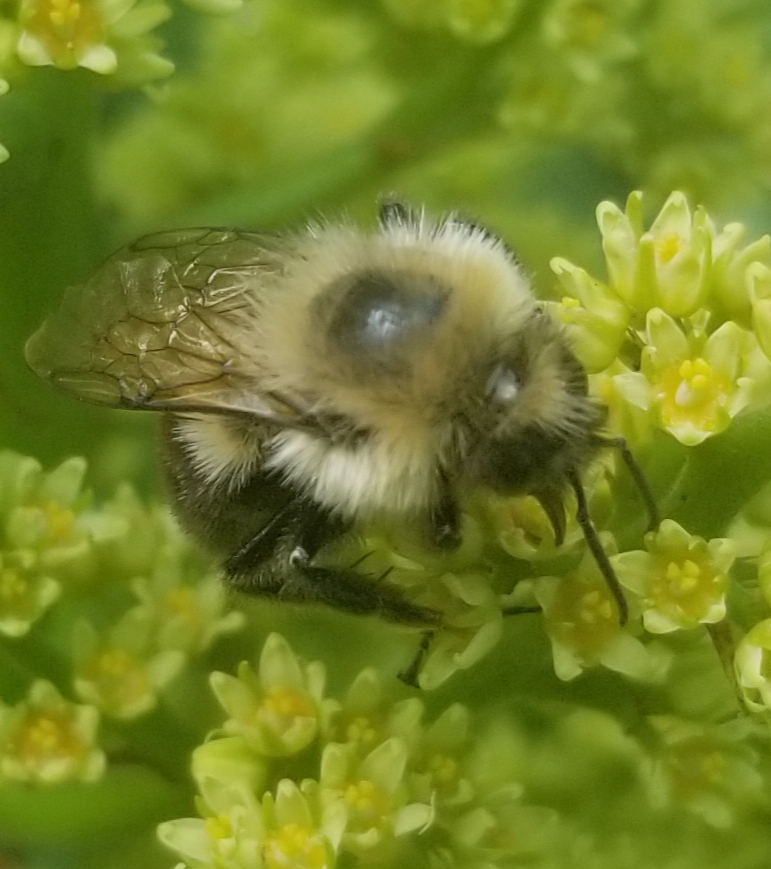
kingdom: Animalia
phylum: Arthropoda
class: Insecta
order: Hymenoptera
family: Apidae
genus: Bombus
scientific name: Bombus impatiens
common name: Common eastern bumble bee
